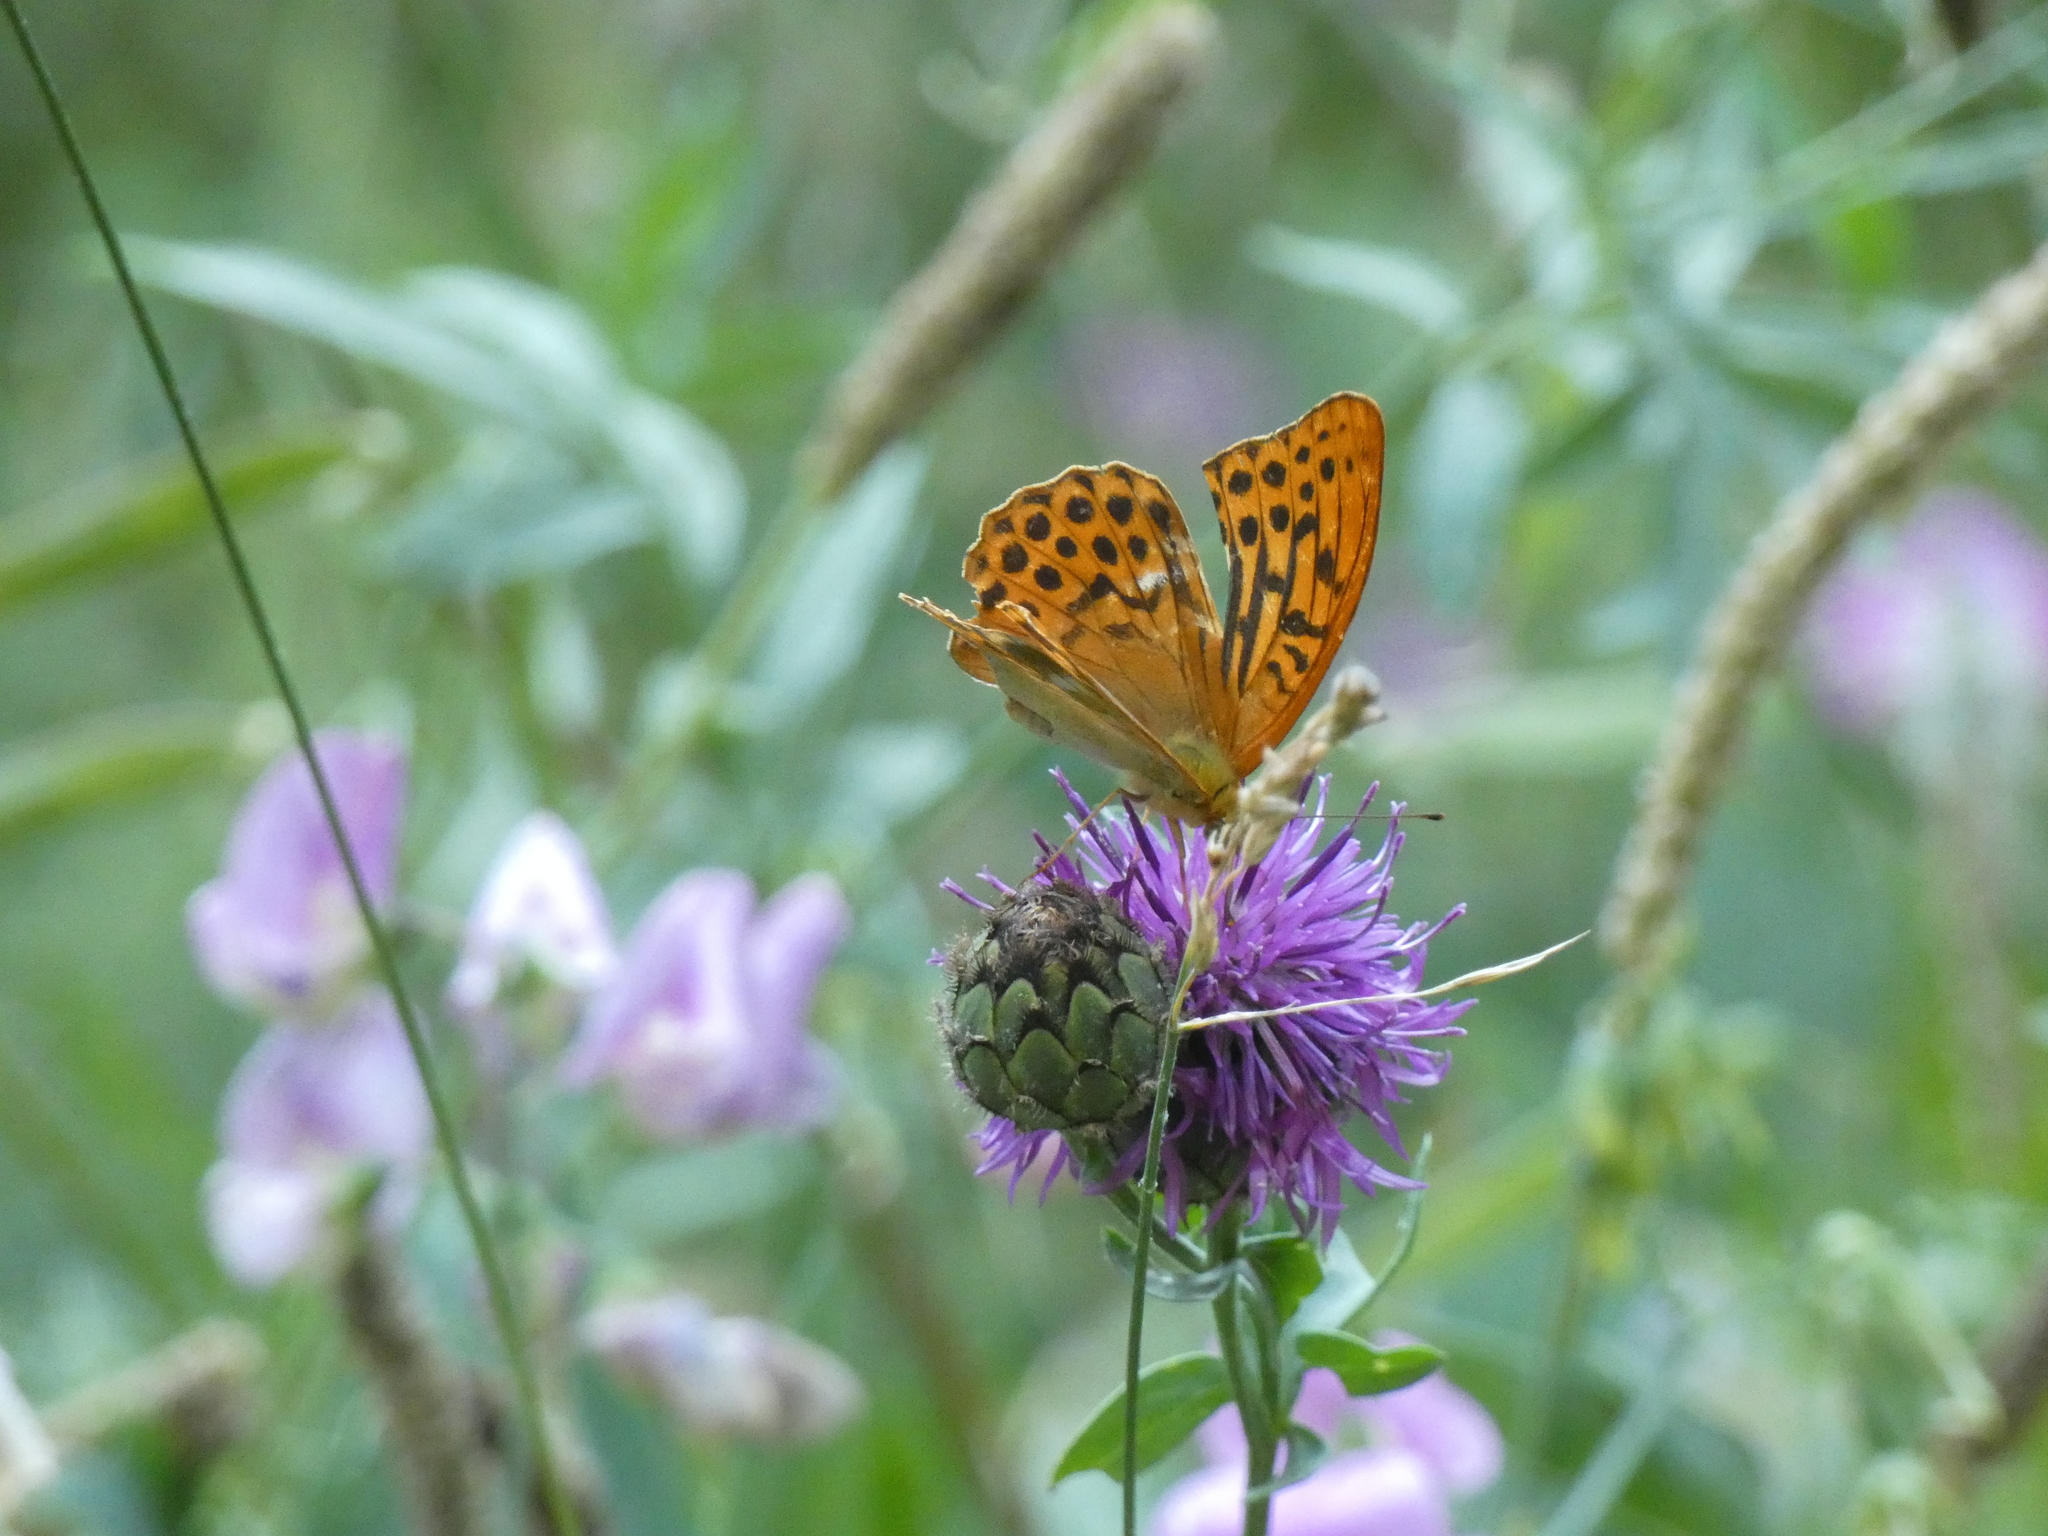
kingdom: Animalia
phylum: Arthropoda
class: Insecta
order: Lepidoptera
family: Nymphalidae
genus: Argynnis
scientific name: Argynnis paphia
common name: Silver-washed fritillary
